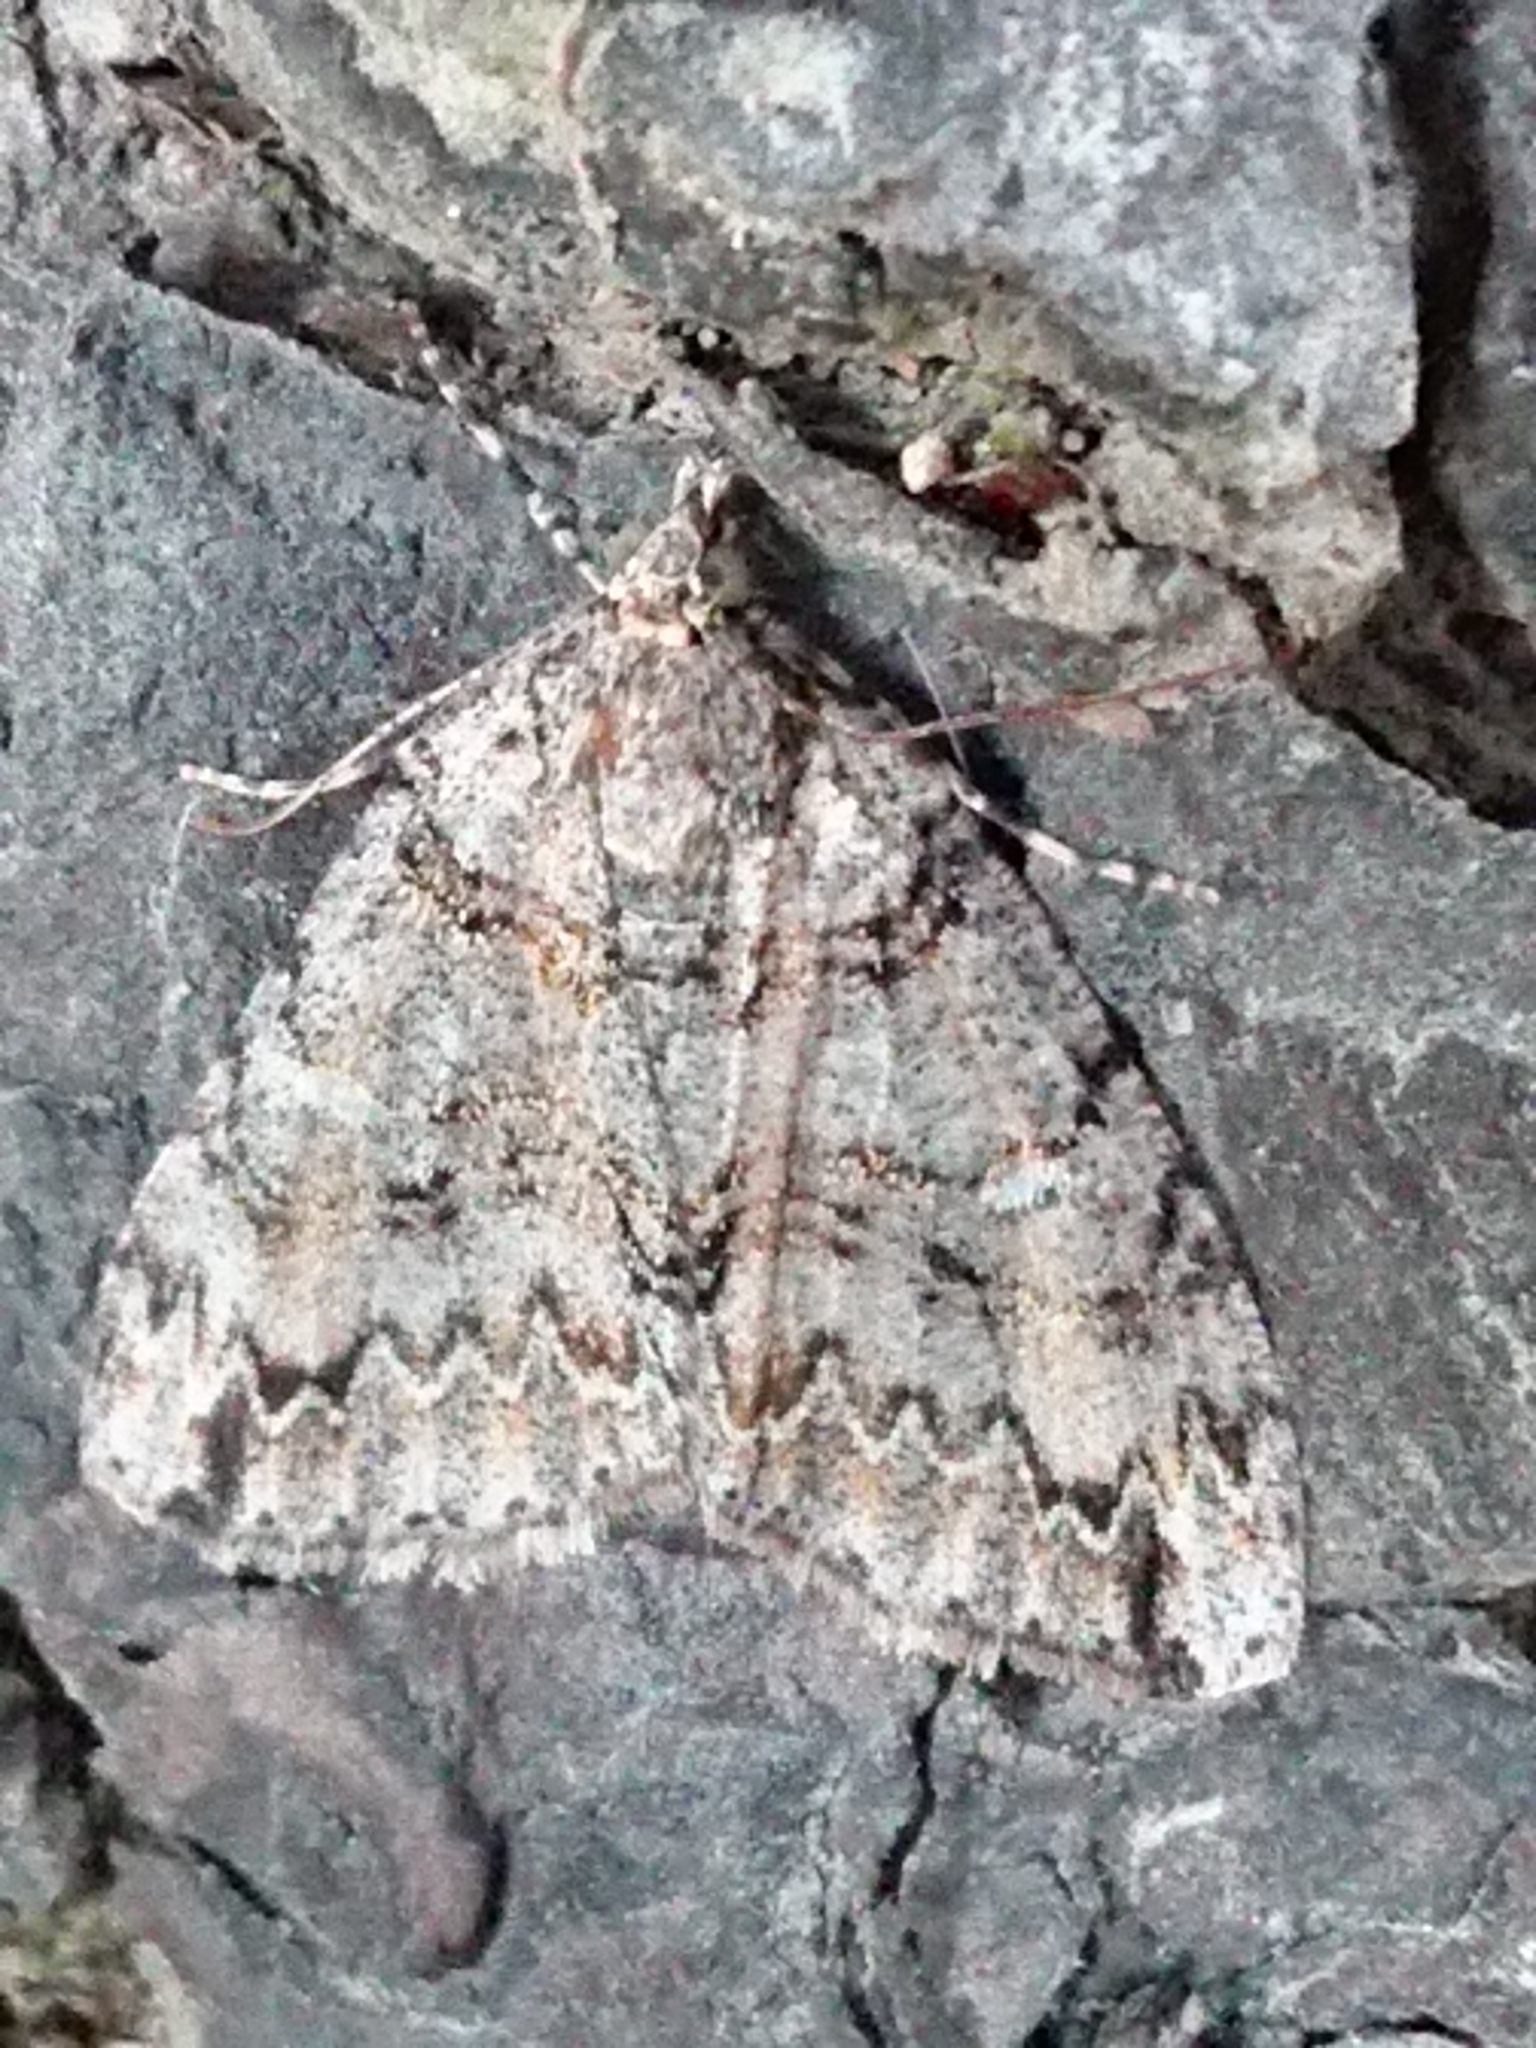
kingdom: Animalia
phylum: Arthropoda
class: Insecta
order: Lepidoptera
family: Geometridae
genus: Pseudocoremia
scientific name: Pseudocoremia suavis
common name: Common forest looper
